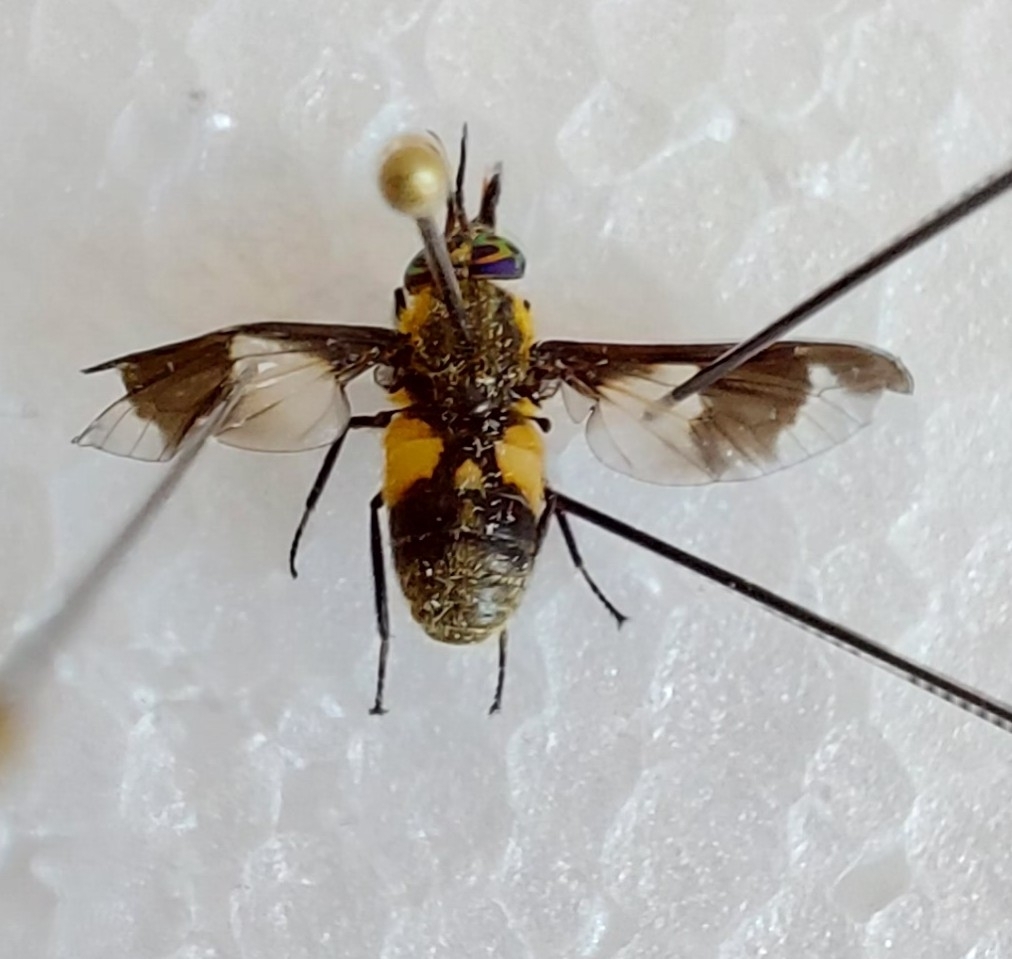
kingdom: Animalia
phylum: Arthropoda
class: Insecta
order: Diptera
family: Tabanidae
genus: Chrysops
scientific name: Chrysops caecutiens
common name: Splayed deerfly
